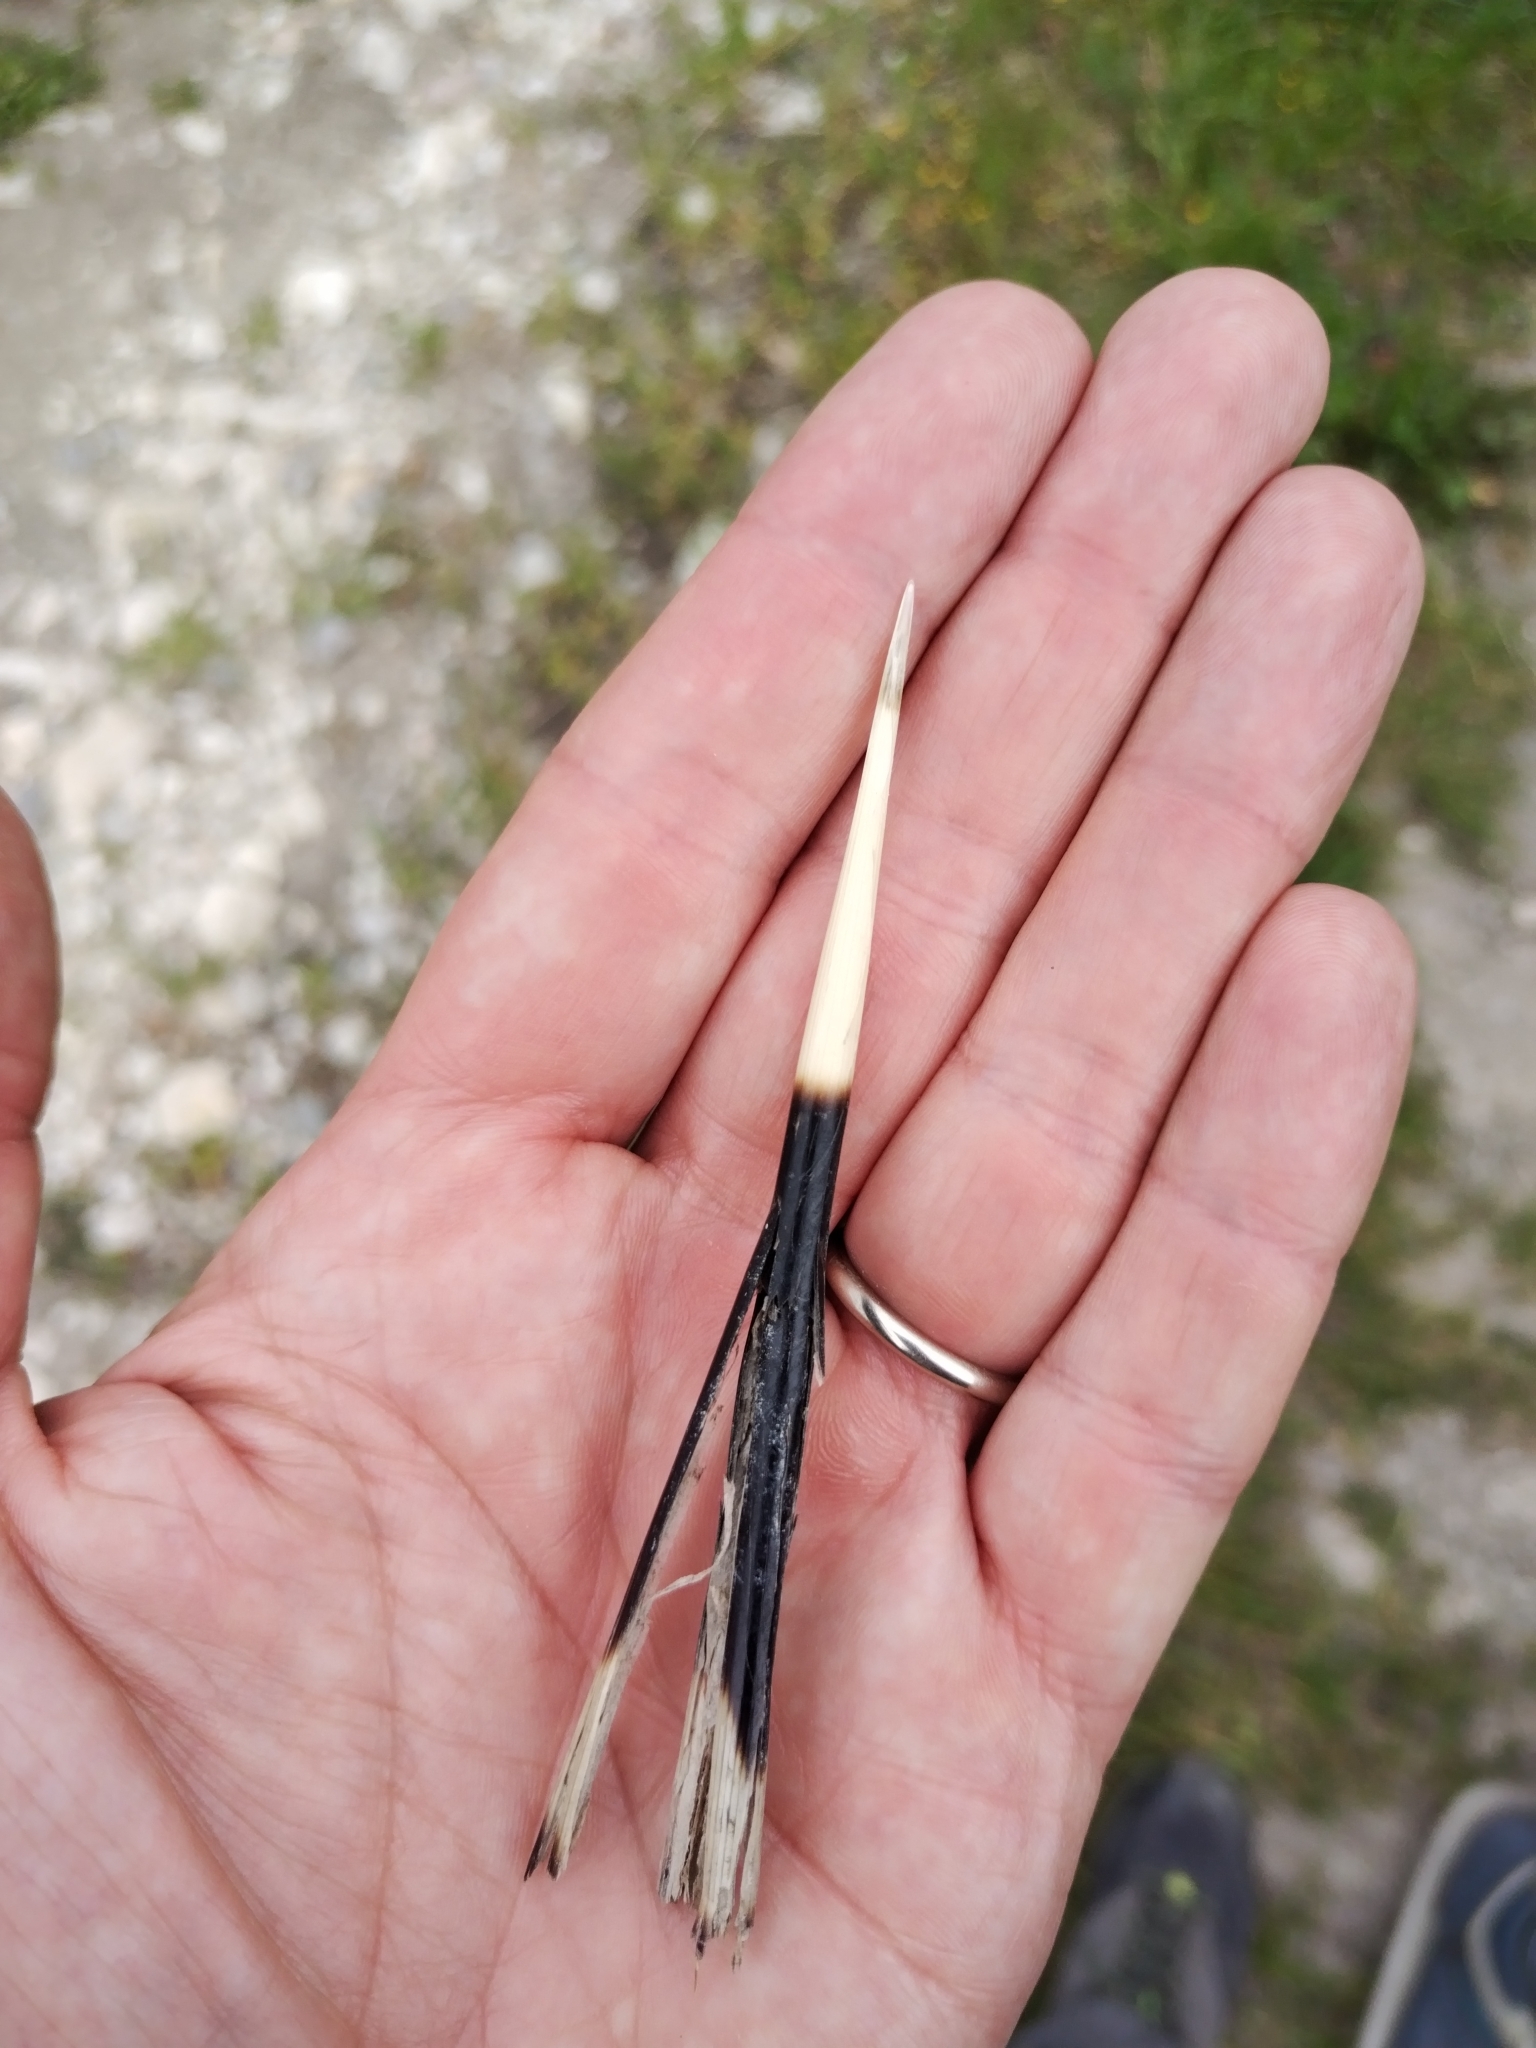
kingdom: Animalia
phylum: Chordata
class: Mammalia
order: Rodentia
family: Hystricidae
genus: Hystrix
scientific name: Hystrix cristata
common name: Crested porcupine
